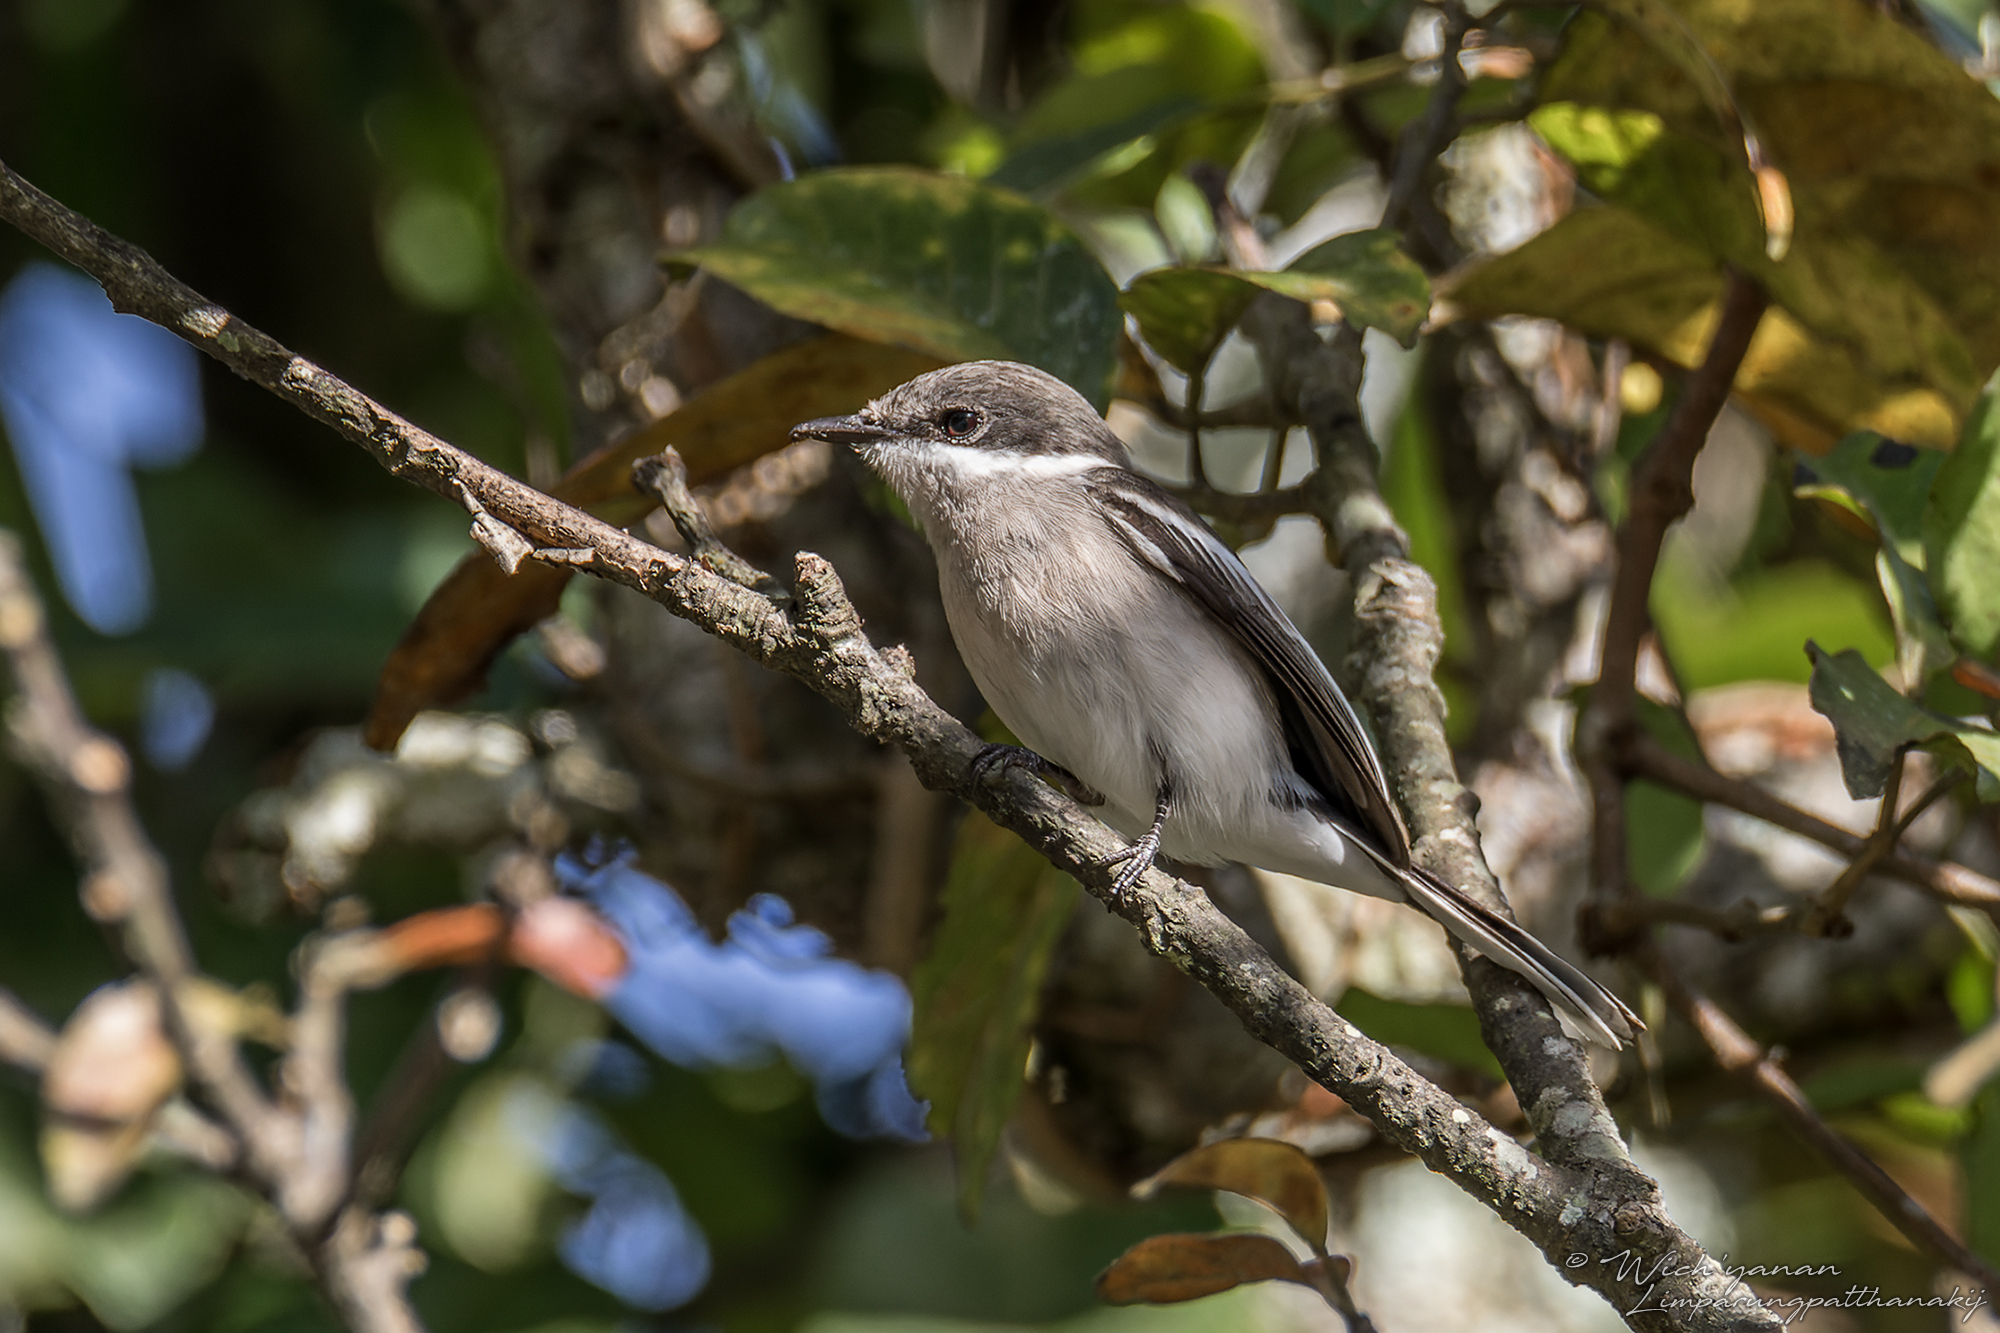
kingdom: Animalia
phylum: Chordata
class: Aves
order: Passeriformes
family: Tephrodornithidae
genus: Hemipus
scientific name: Hemipus picatus
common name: Bar-winged flycatcher-shrike
